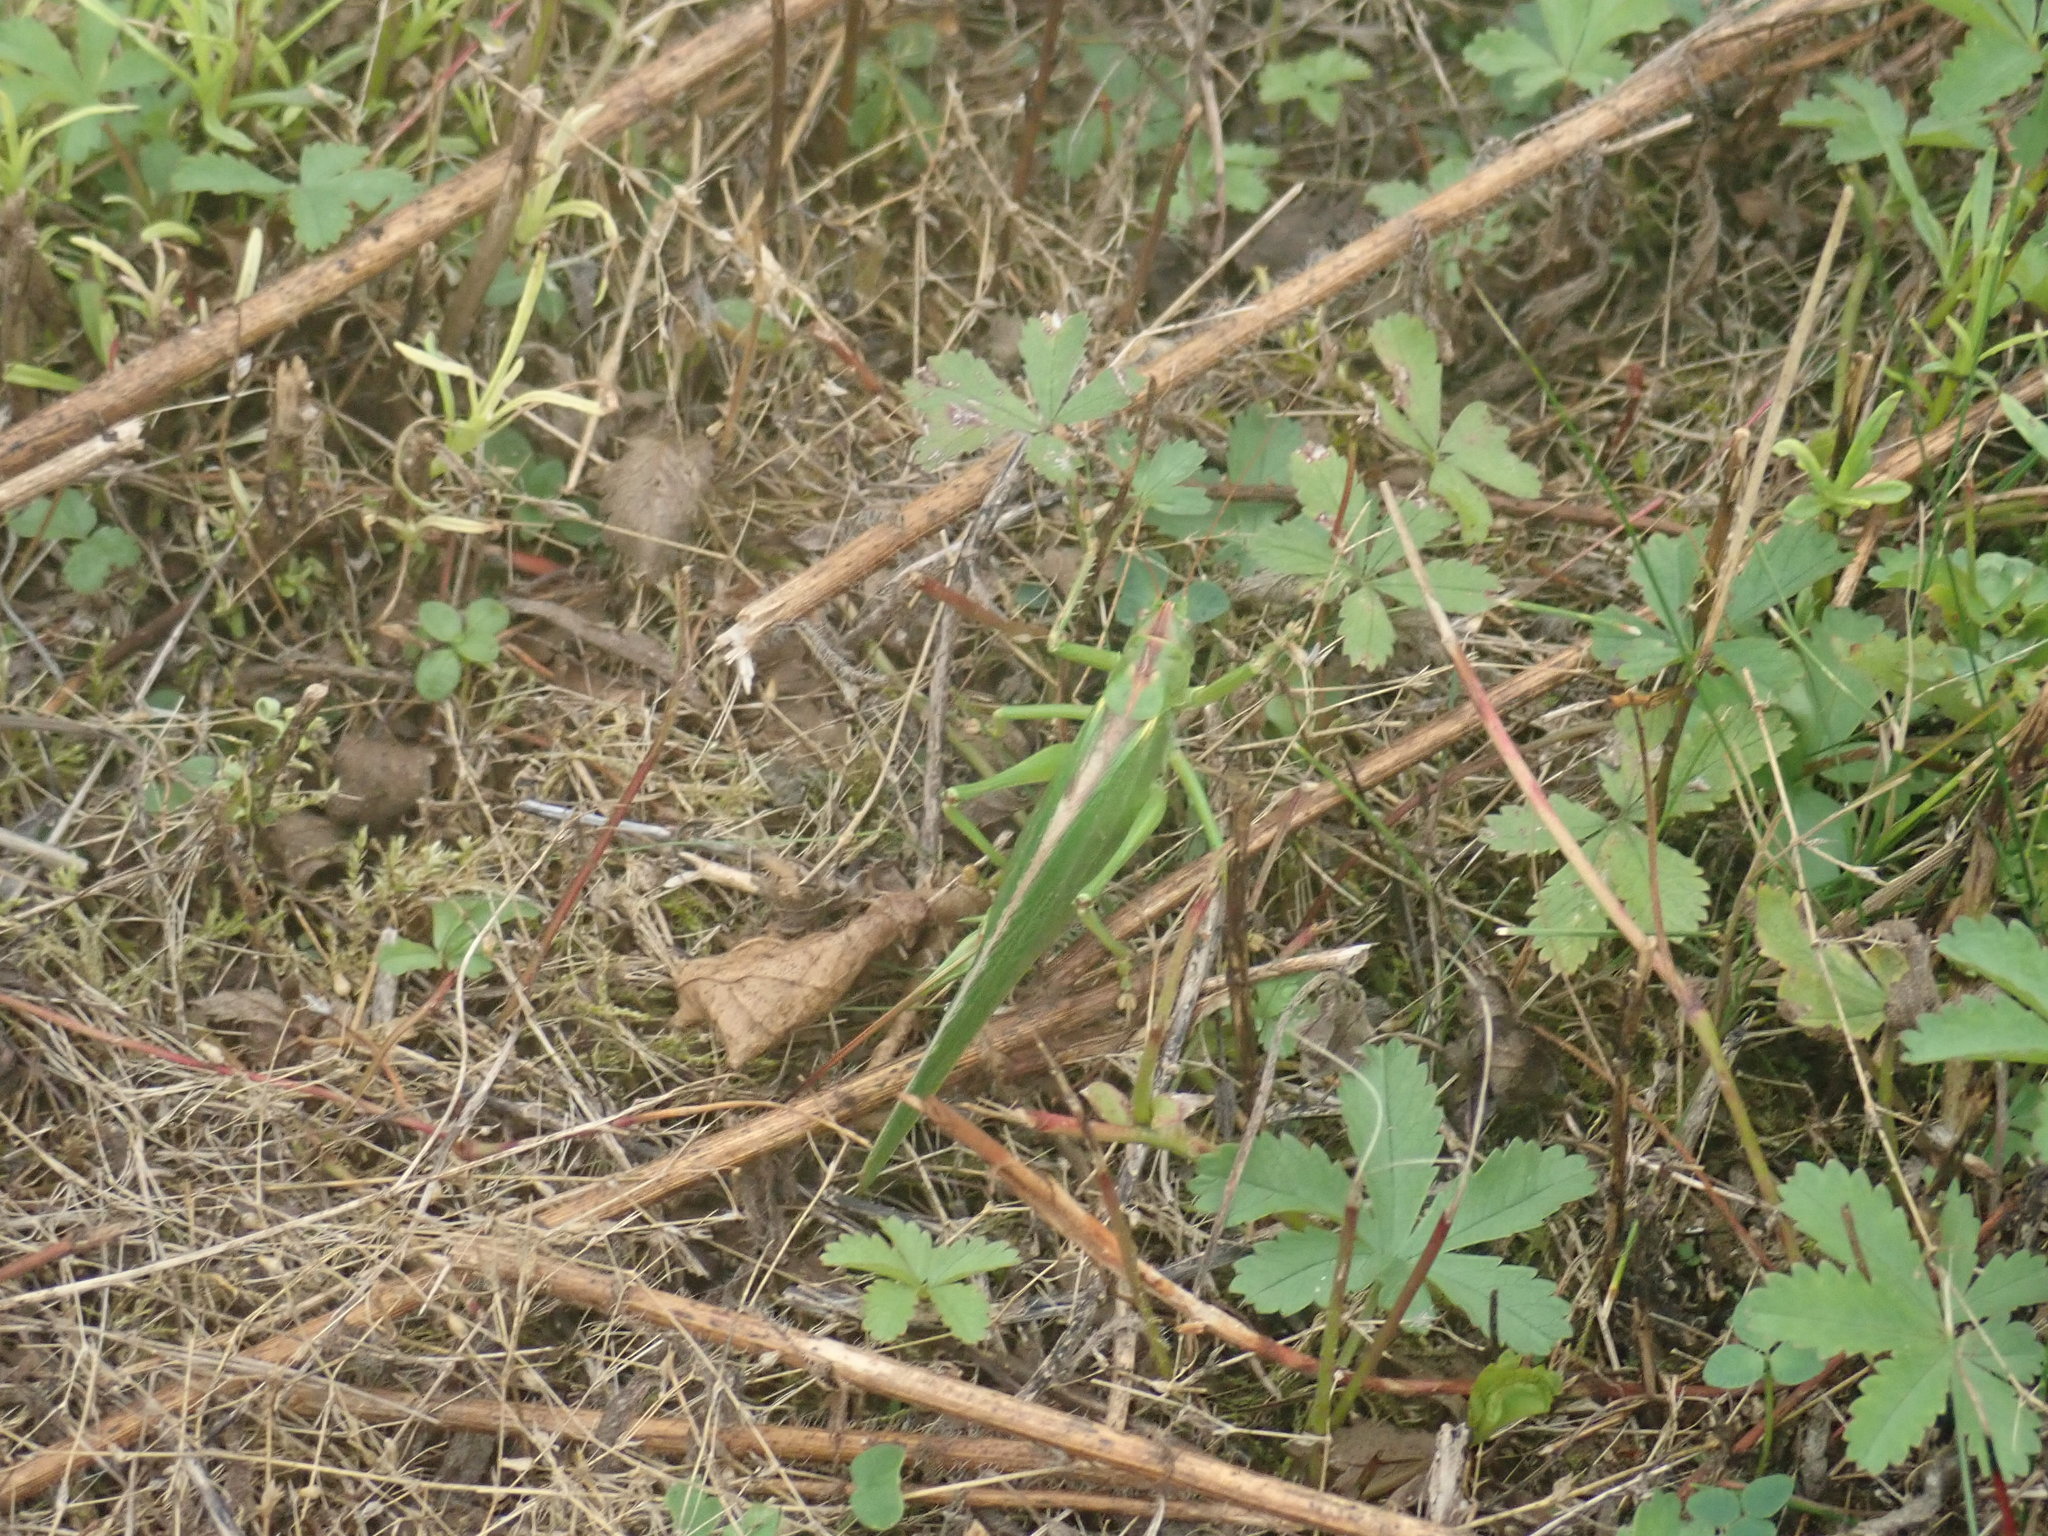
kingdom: Animalia
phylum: Arthropoda
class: Insecta
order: Orthoptera
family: Tettigoniidae
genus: Tettigonia
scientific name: Tettigonia viridissima
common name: Great green bush-cricket
